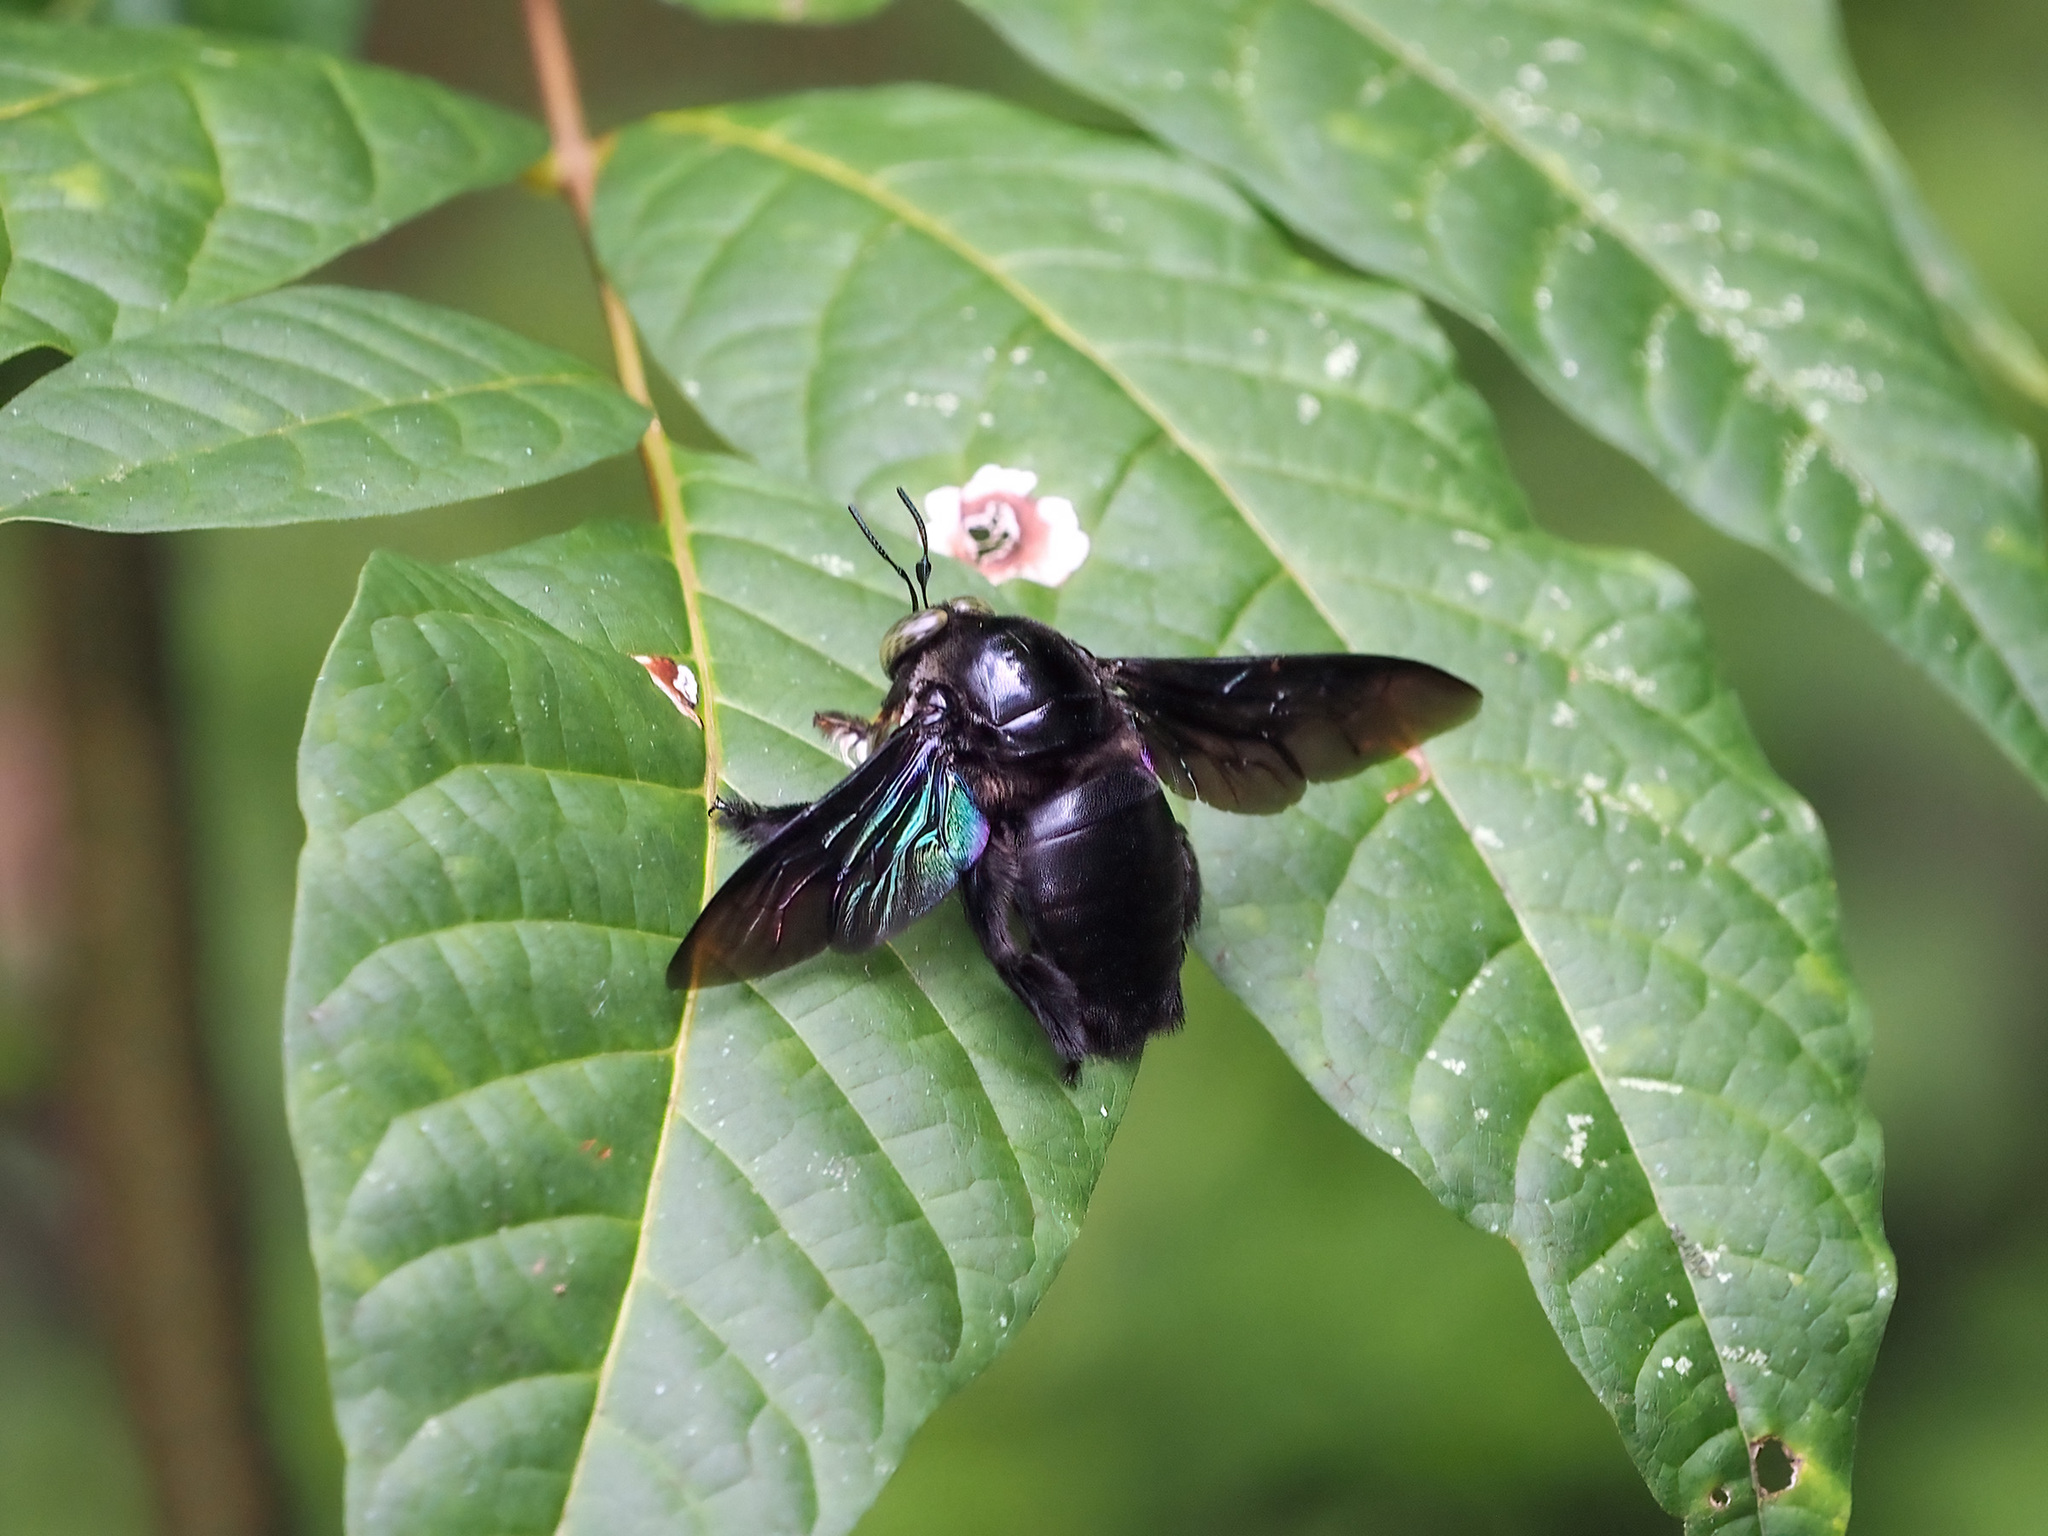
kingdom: Animalia
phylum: Arthropoda
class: Insecta
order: Hymenoptera
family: Apidae
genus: Xylocopa
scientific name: Xylocopa latipes
